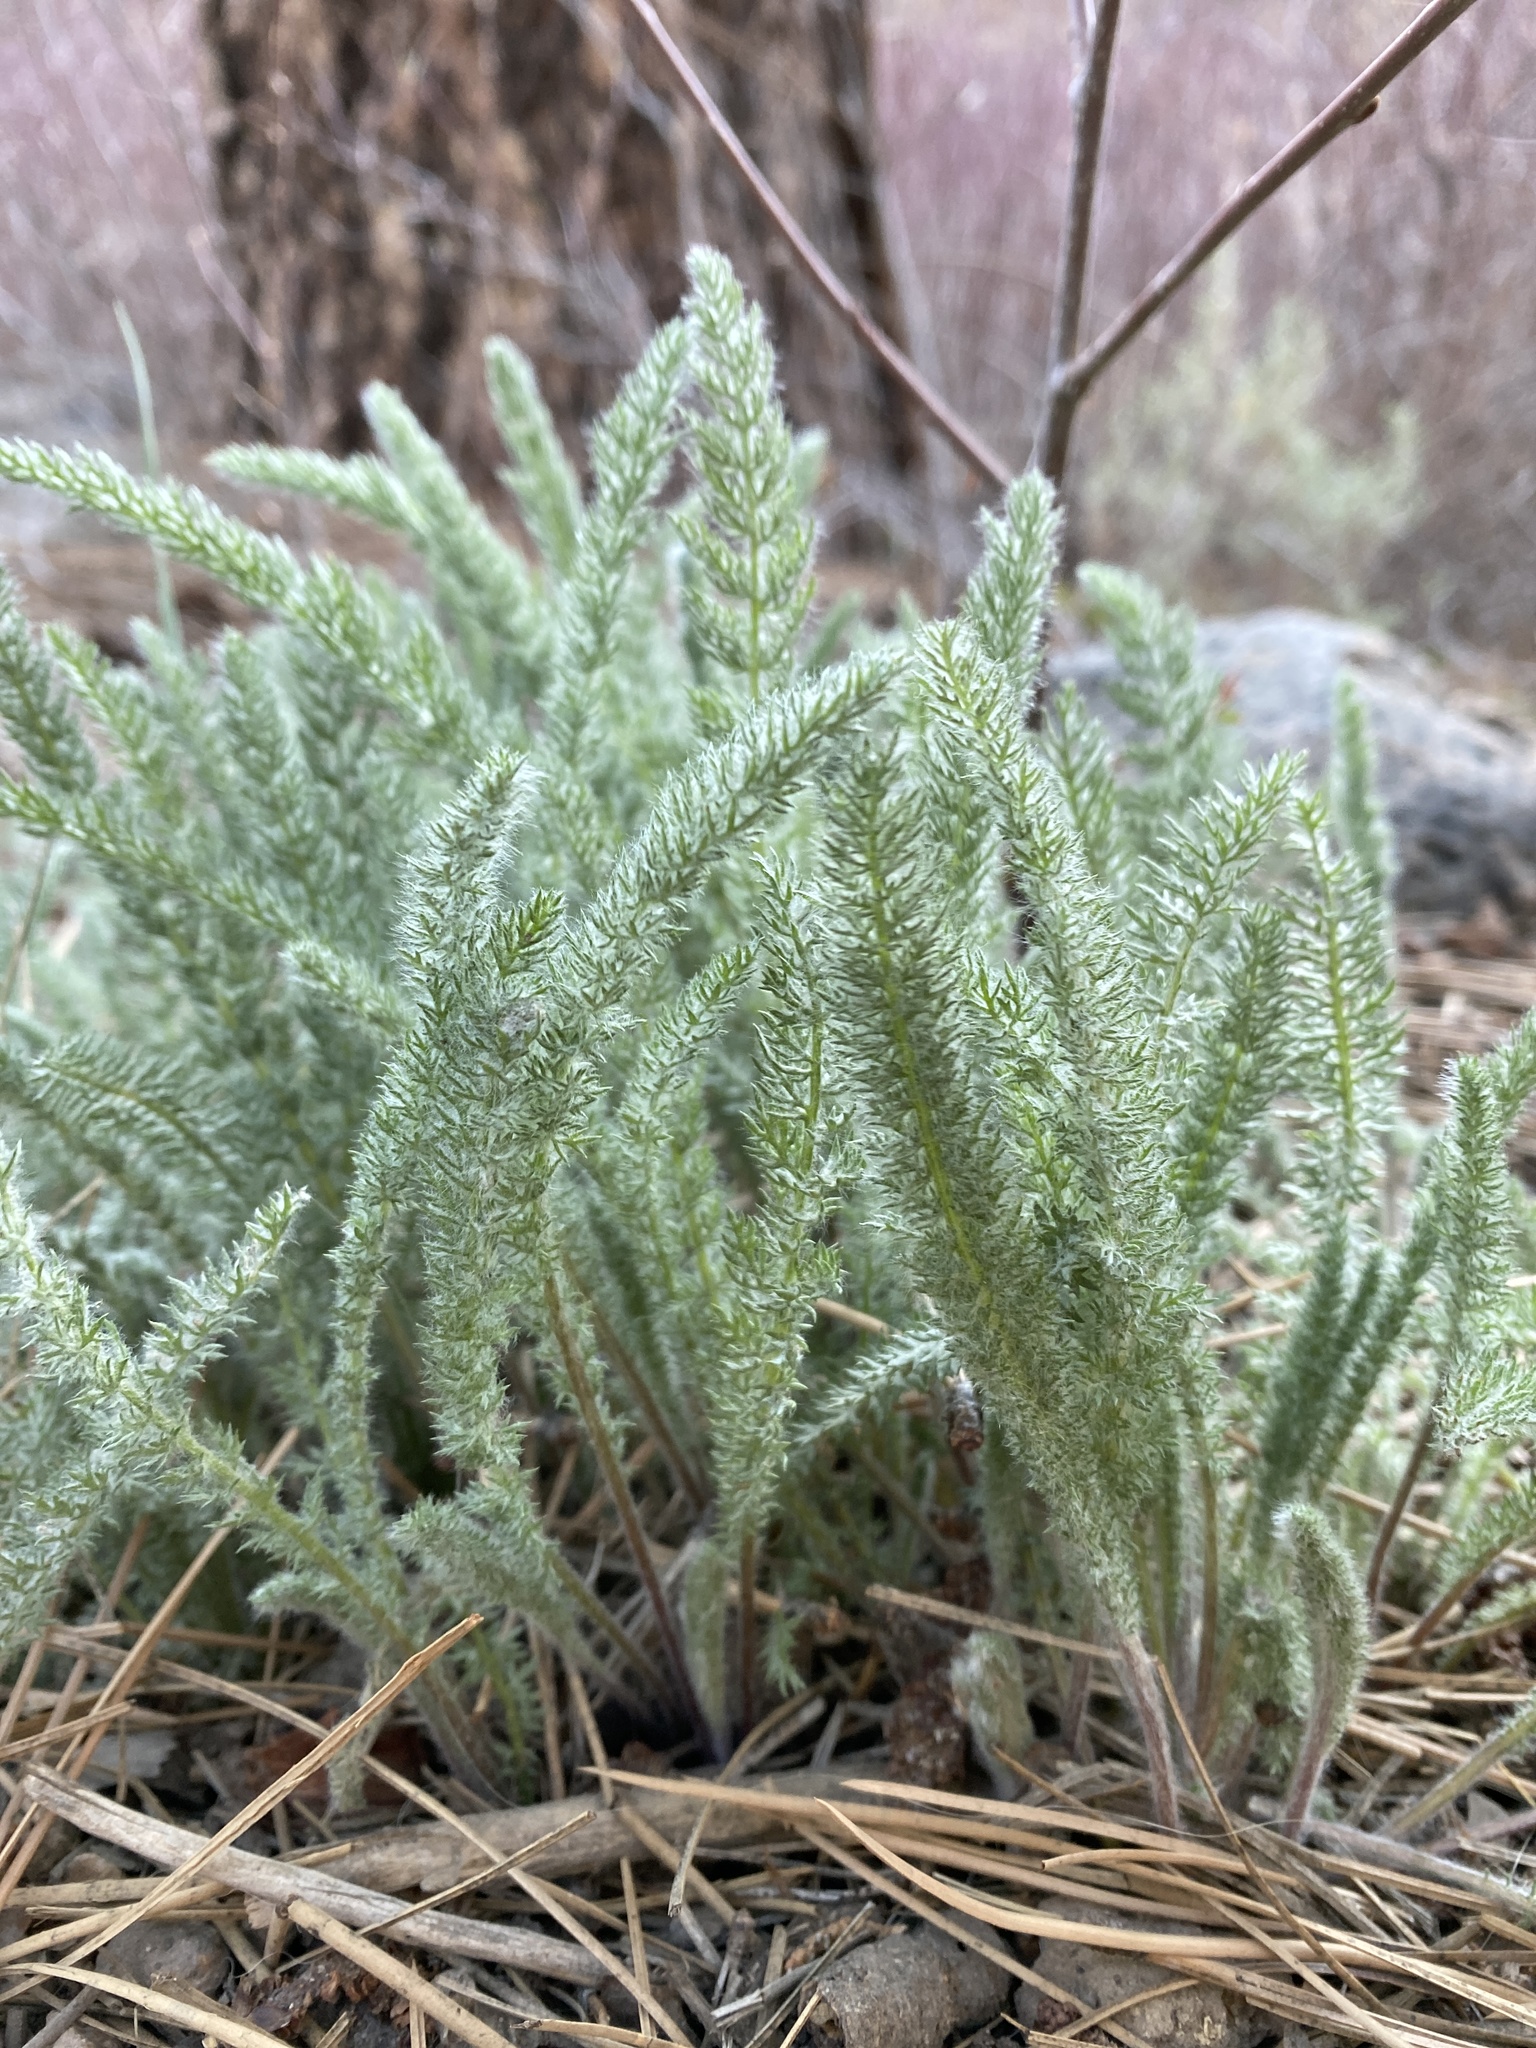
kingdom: Plantae
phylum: Tracheophyta
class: Magnoliopsida
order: Asterales
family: Asteraceae
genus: Achillea
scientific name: Achillea millefolium
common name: Yarrow
